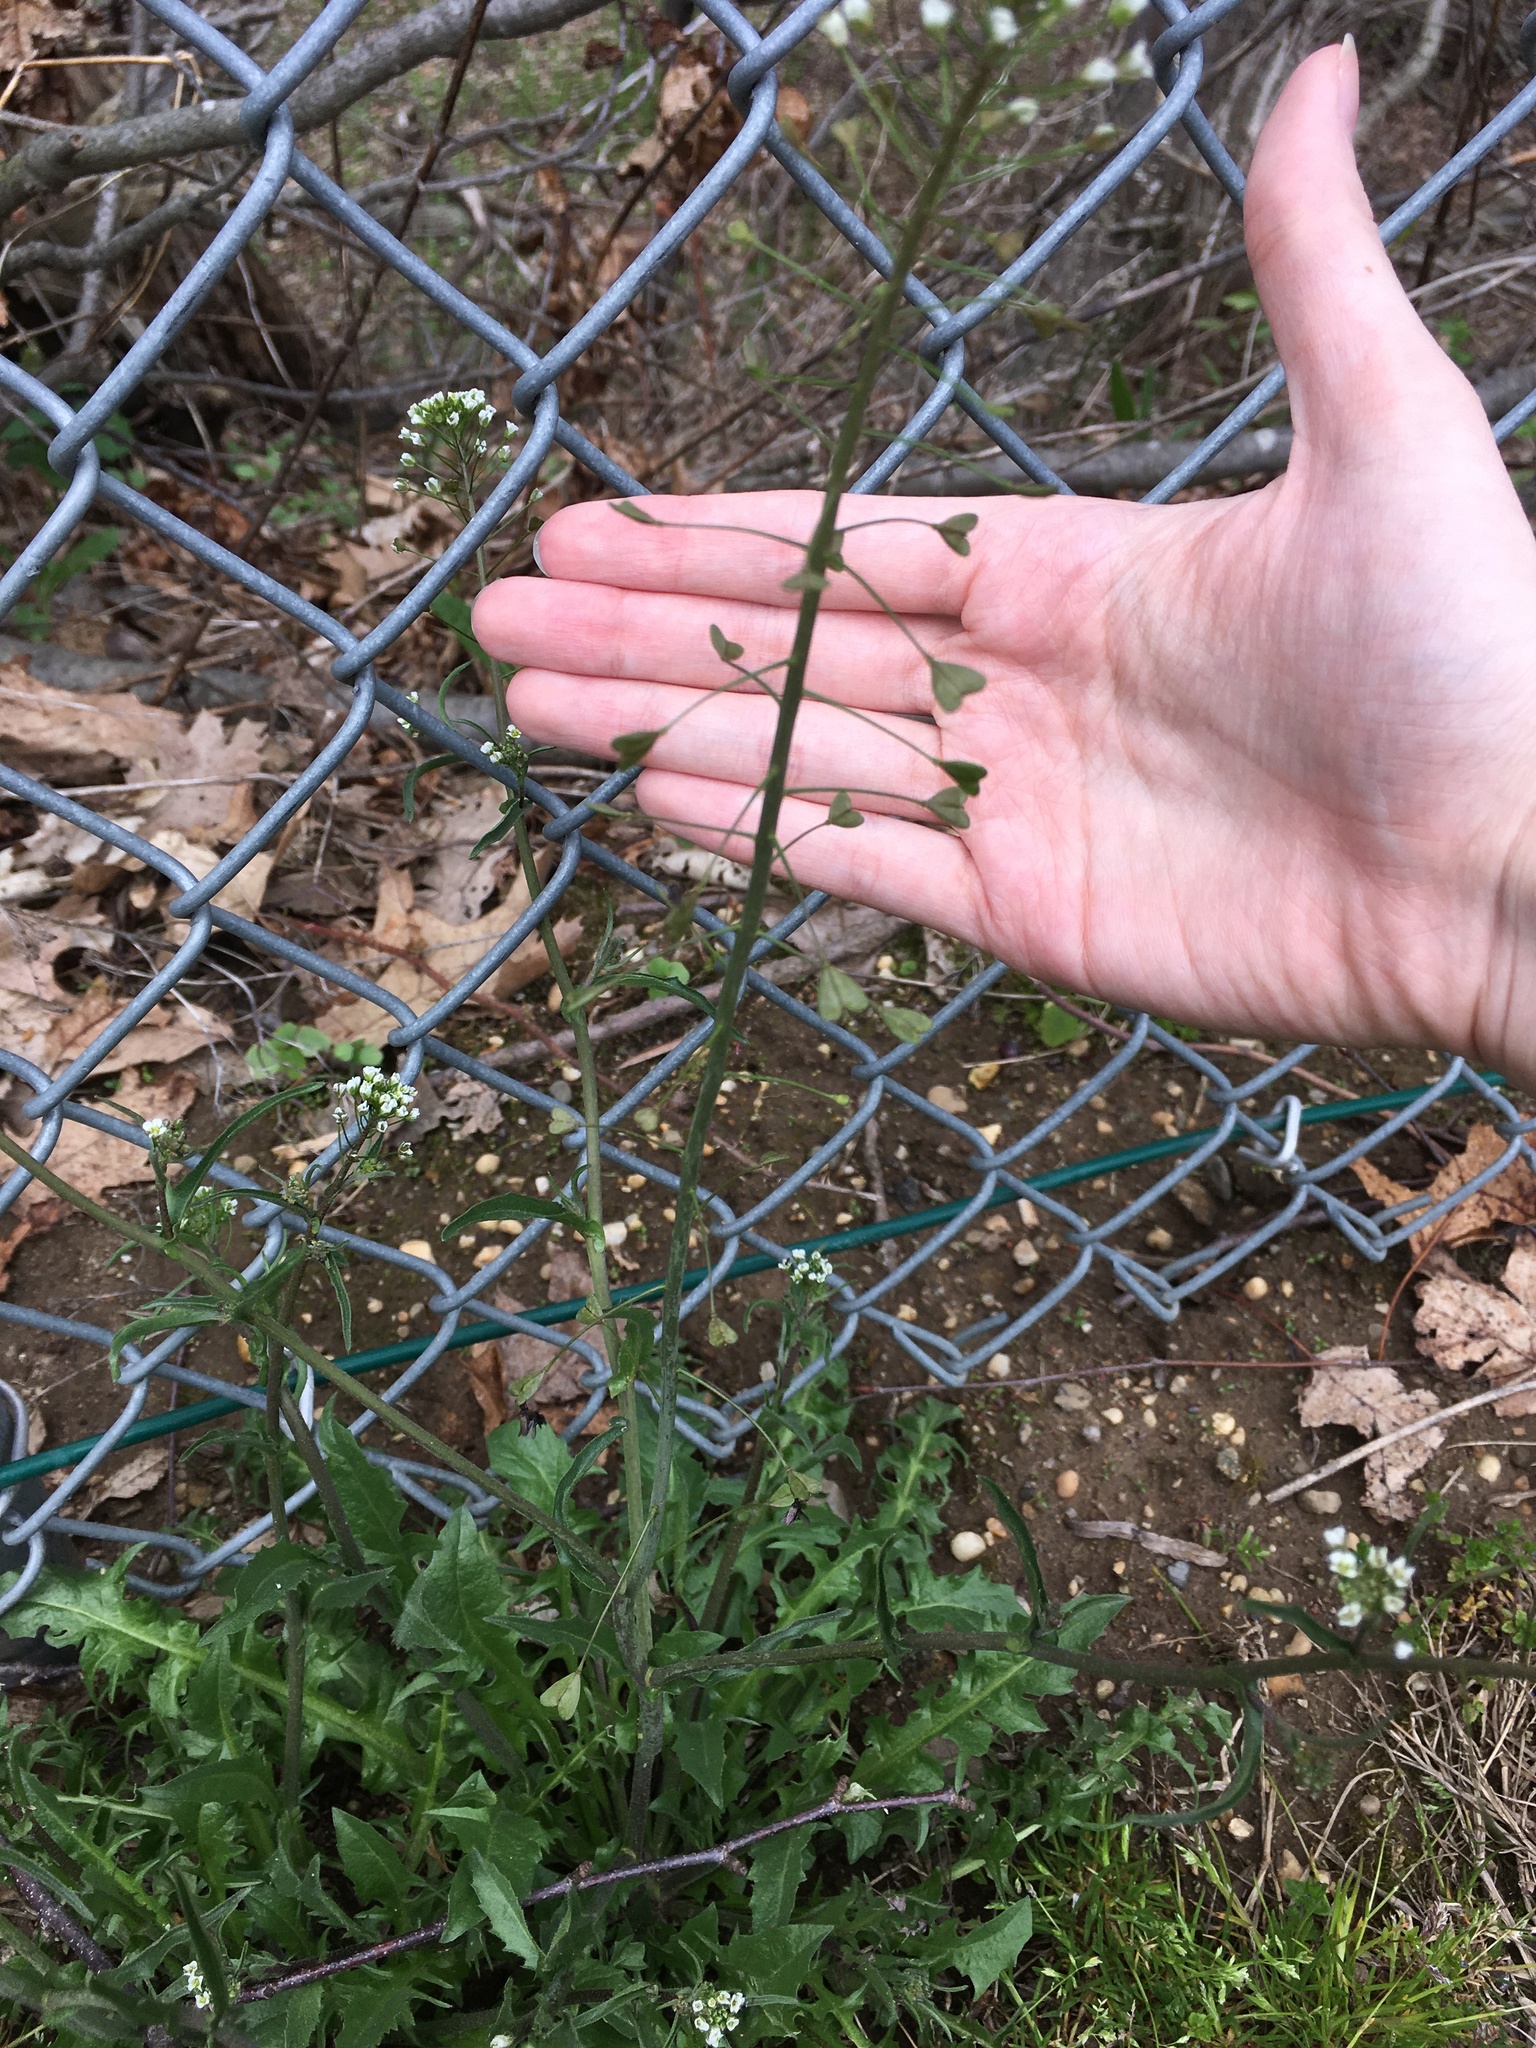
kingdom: Plantae
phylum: Tracheophyta
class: Magnoliopsida
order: Brassicales
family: Brassicaceae
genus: Capsella
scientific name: Capsella bursa-pastoris
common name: Shepherd's purse
